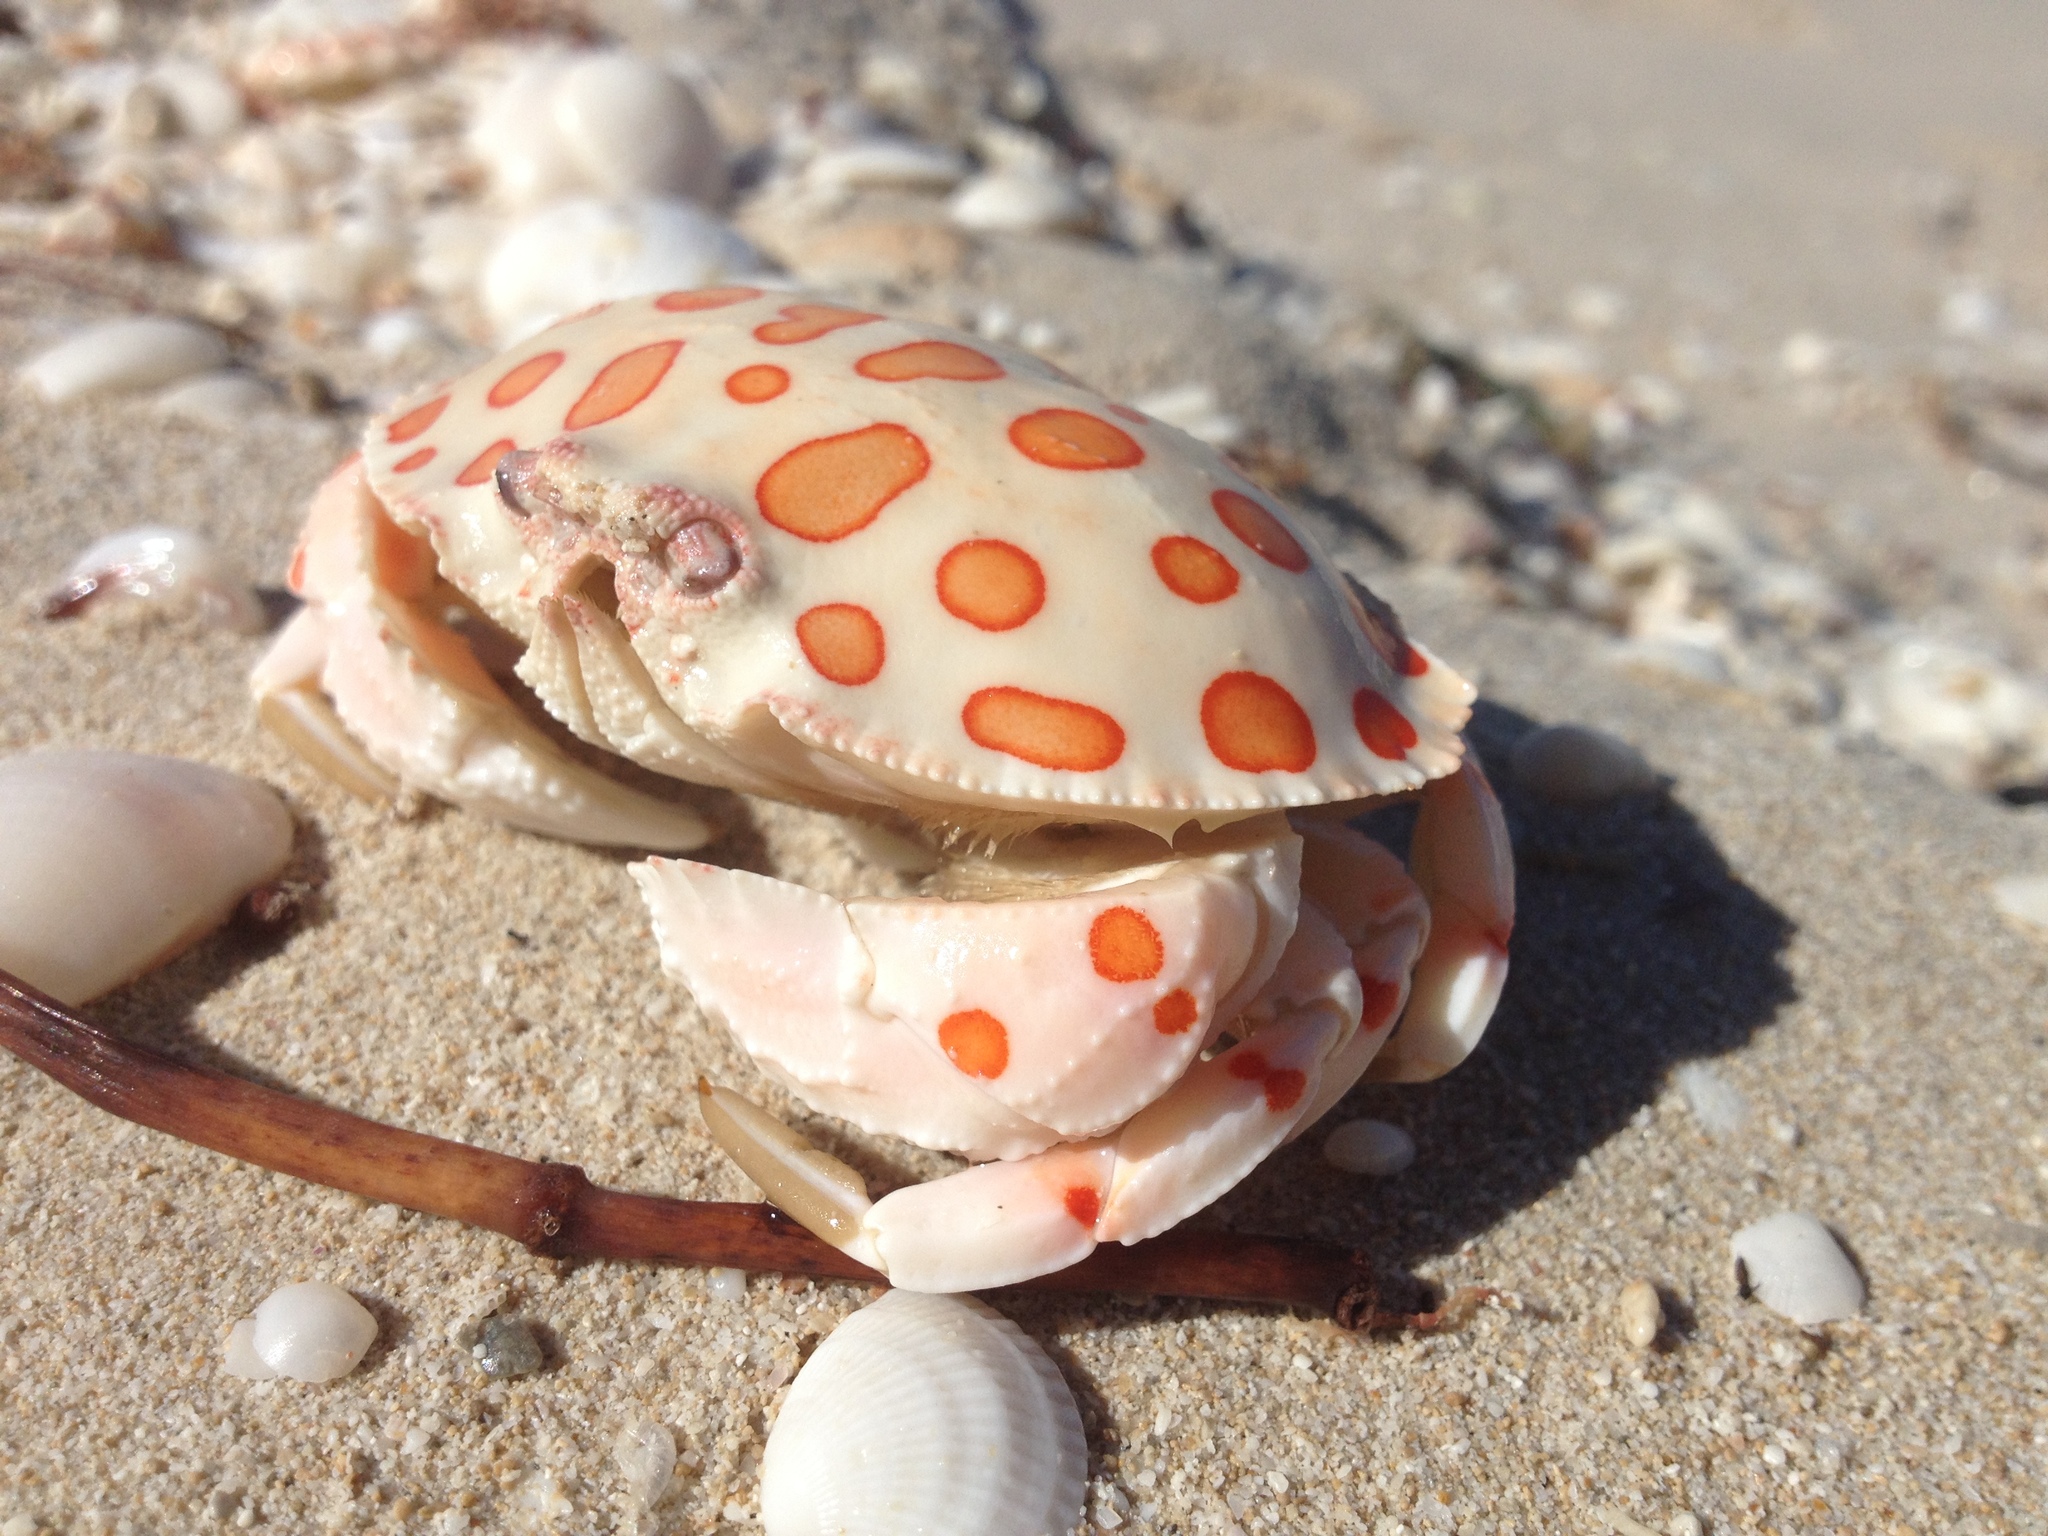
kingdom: Animalia
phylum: Arthropoda
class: Malacostraca
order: Decapoda
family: Aethridae
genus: Hepatus
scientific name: Hepatus epheliticus
